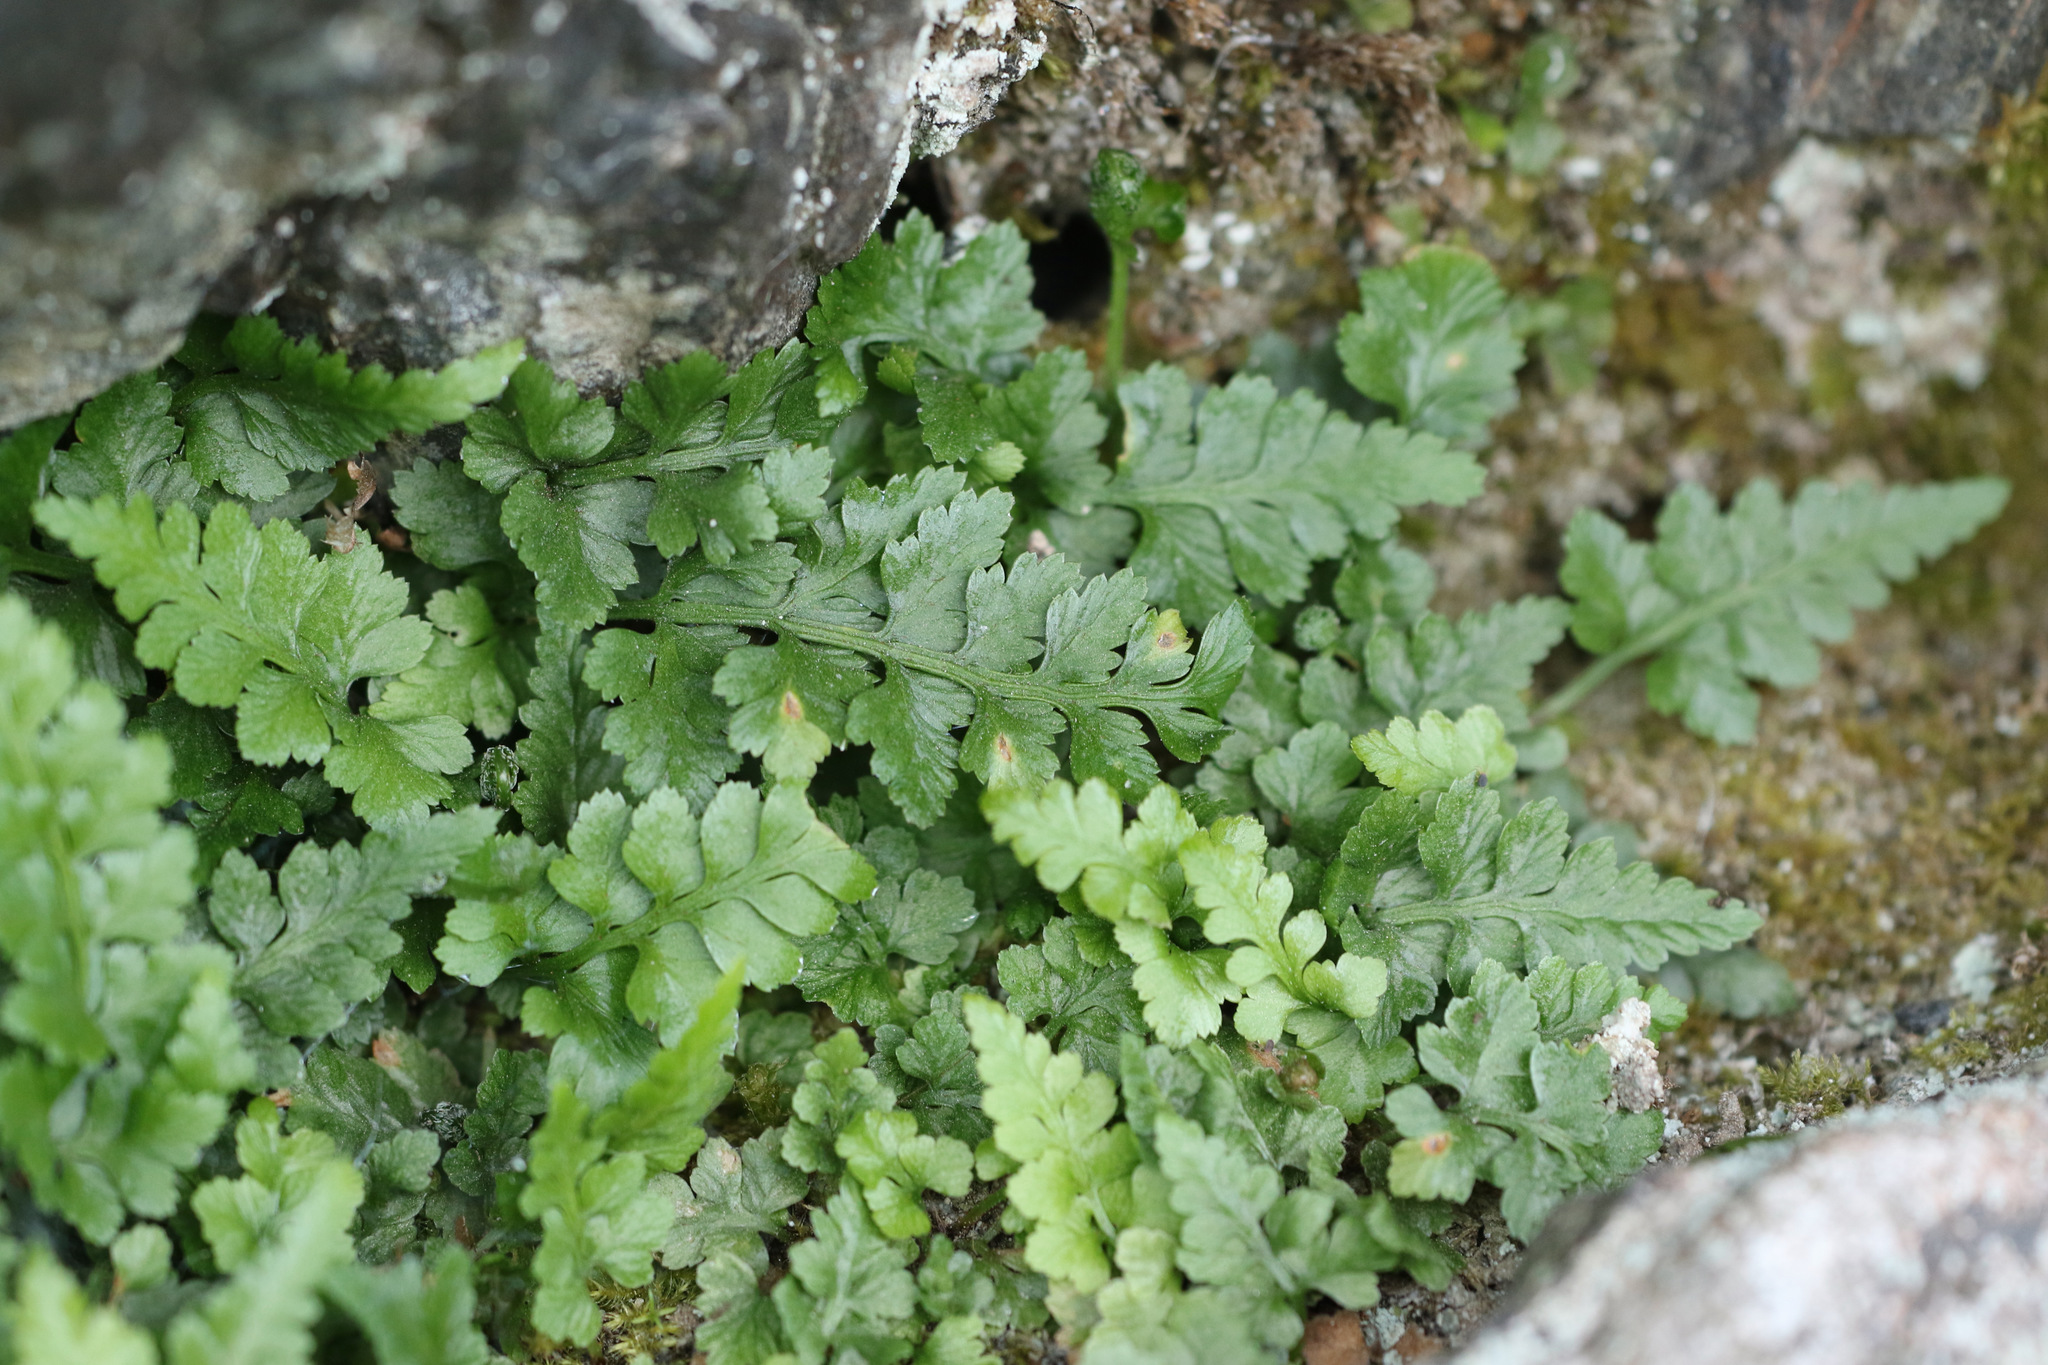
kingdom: Plantae
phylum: Tracheophyta
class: Polypodiopsida
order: Polypodiales
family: Aspleniaceae
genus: Asplenium
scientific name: Asplenium adiantum-nigrum
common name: Black spleenwort
